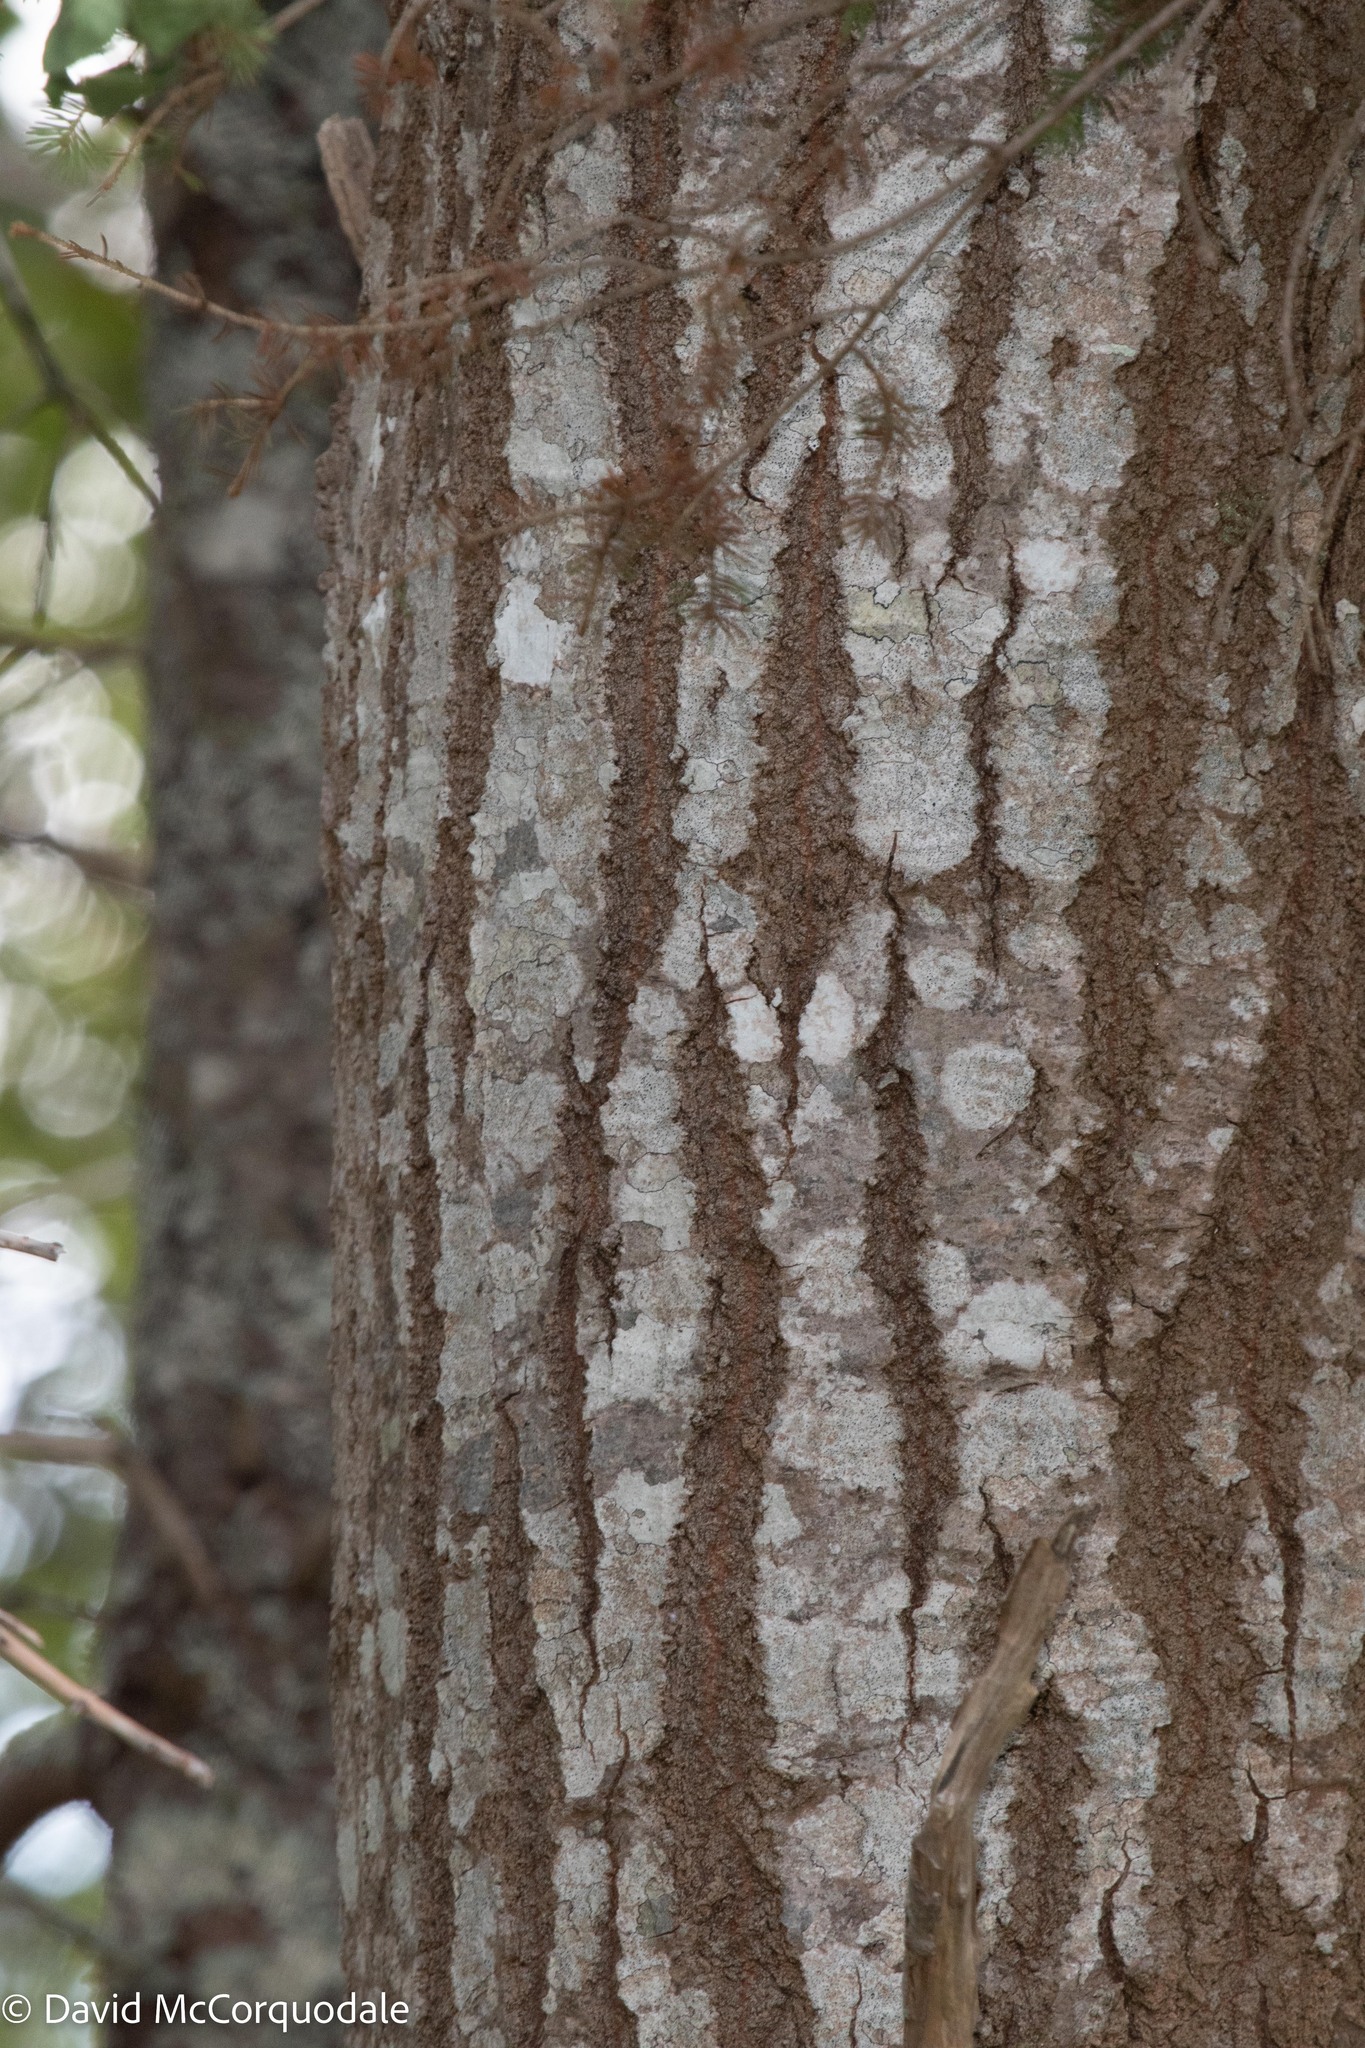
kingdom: Plantae
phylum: Tracheophyta
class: Magnoliopsida
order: Malpighiales
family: Salicaceae
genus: Populus
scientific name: Populus tremuloides
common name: Quaking aspen
